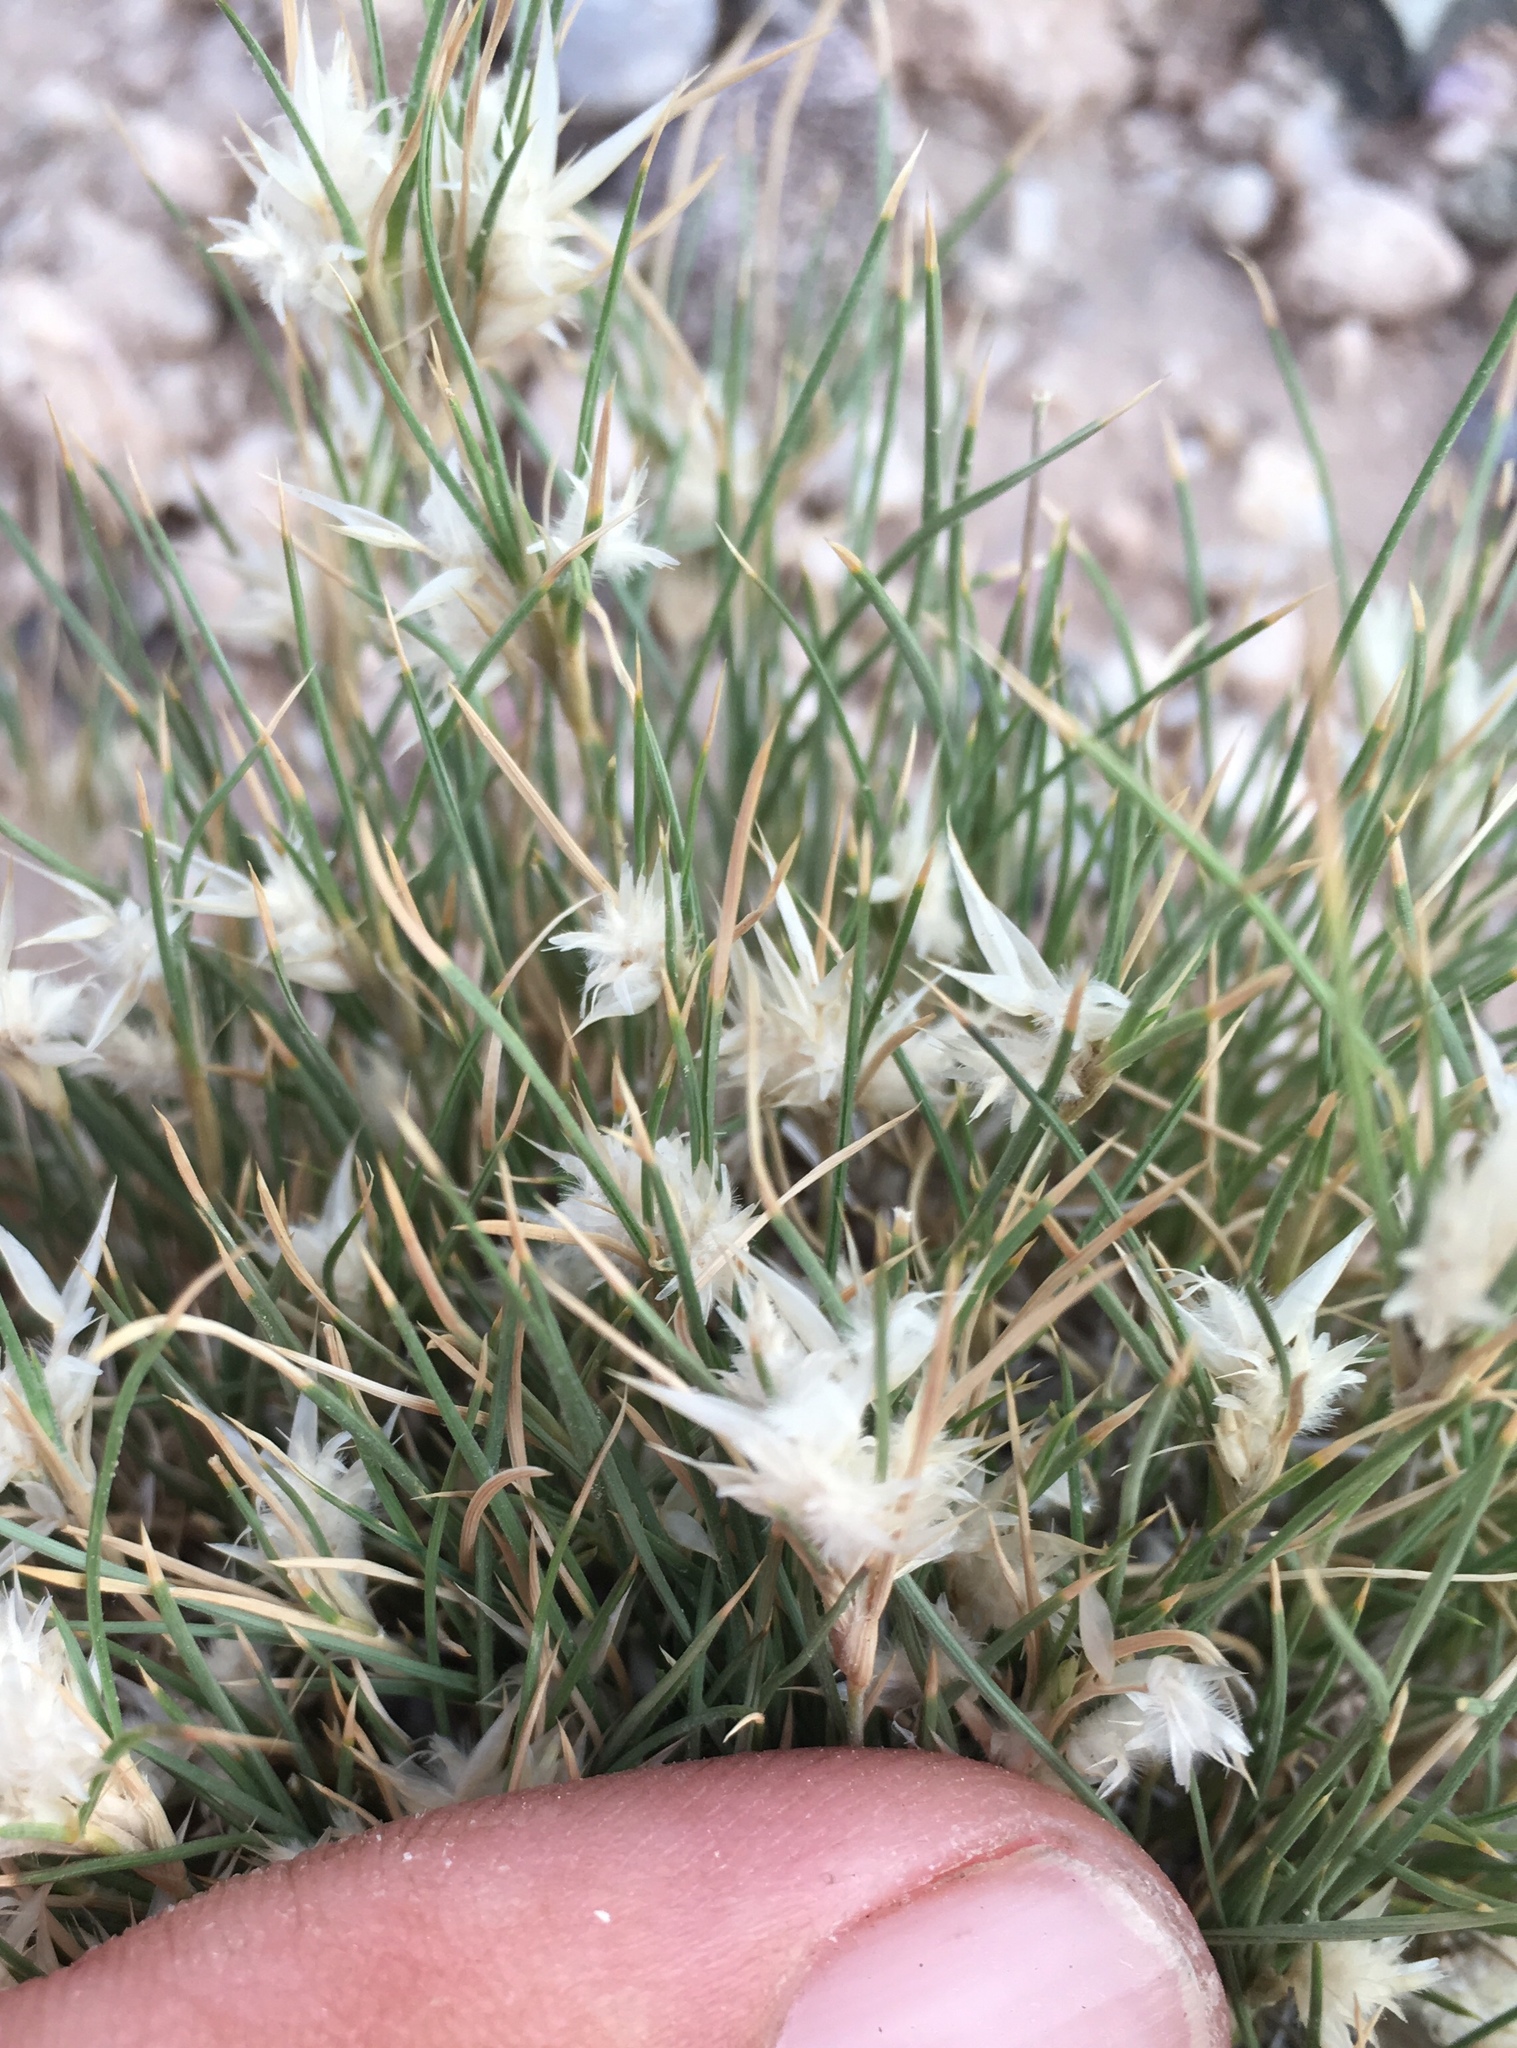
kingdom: Plantae
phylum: Tracheophyta
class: Liliopsida
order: Poales
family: Poaceae
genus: Dasyochloa
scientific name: Dasyochloa pulchella
